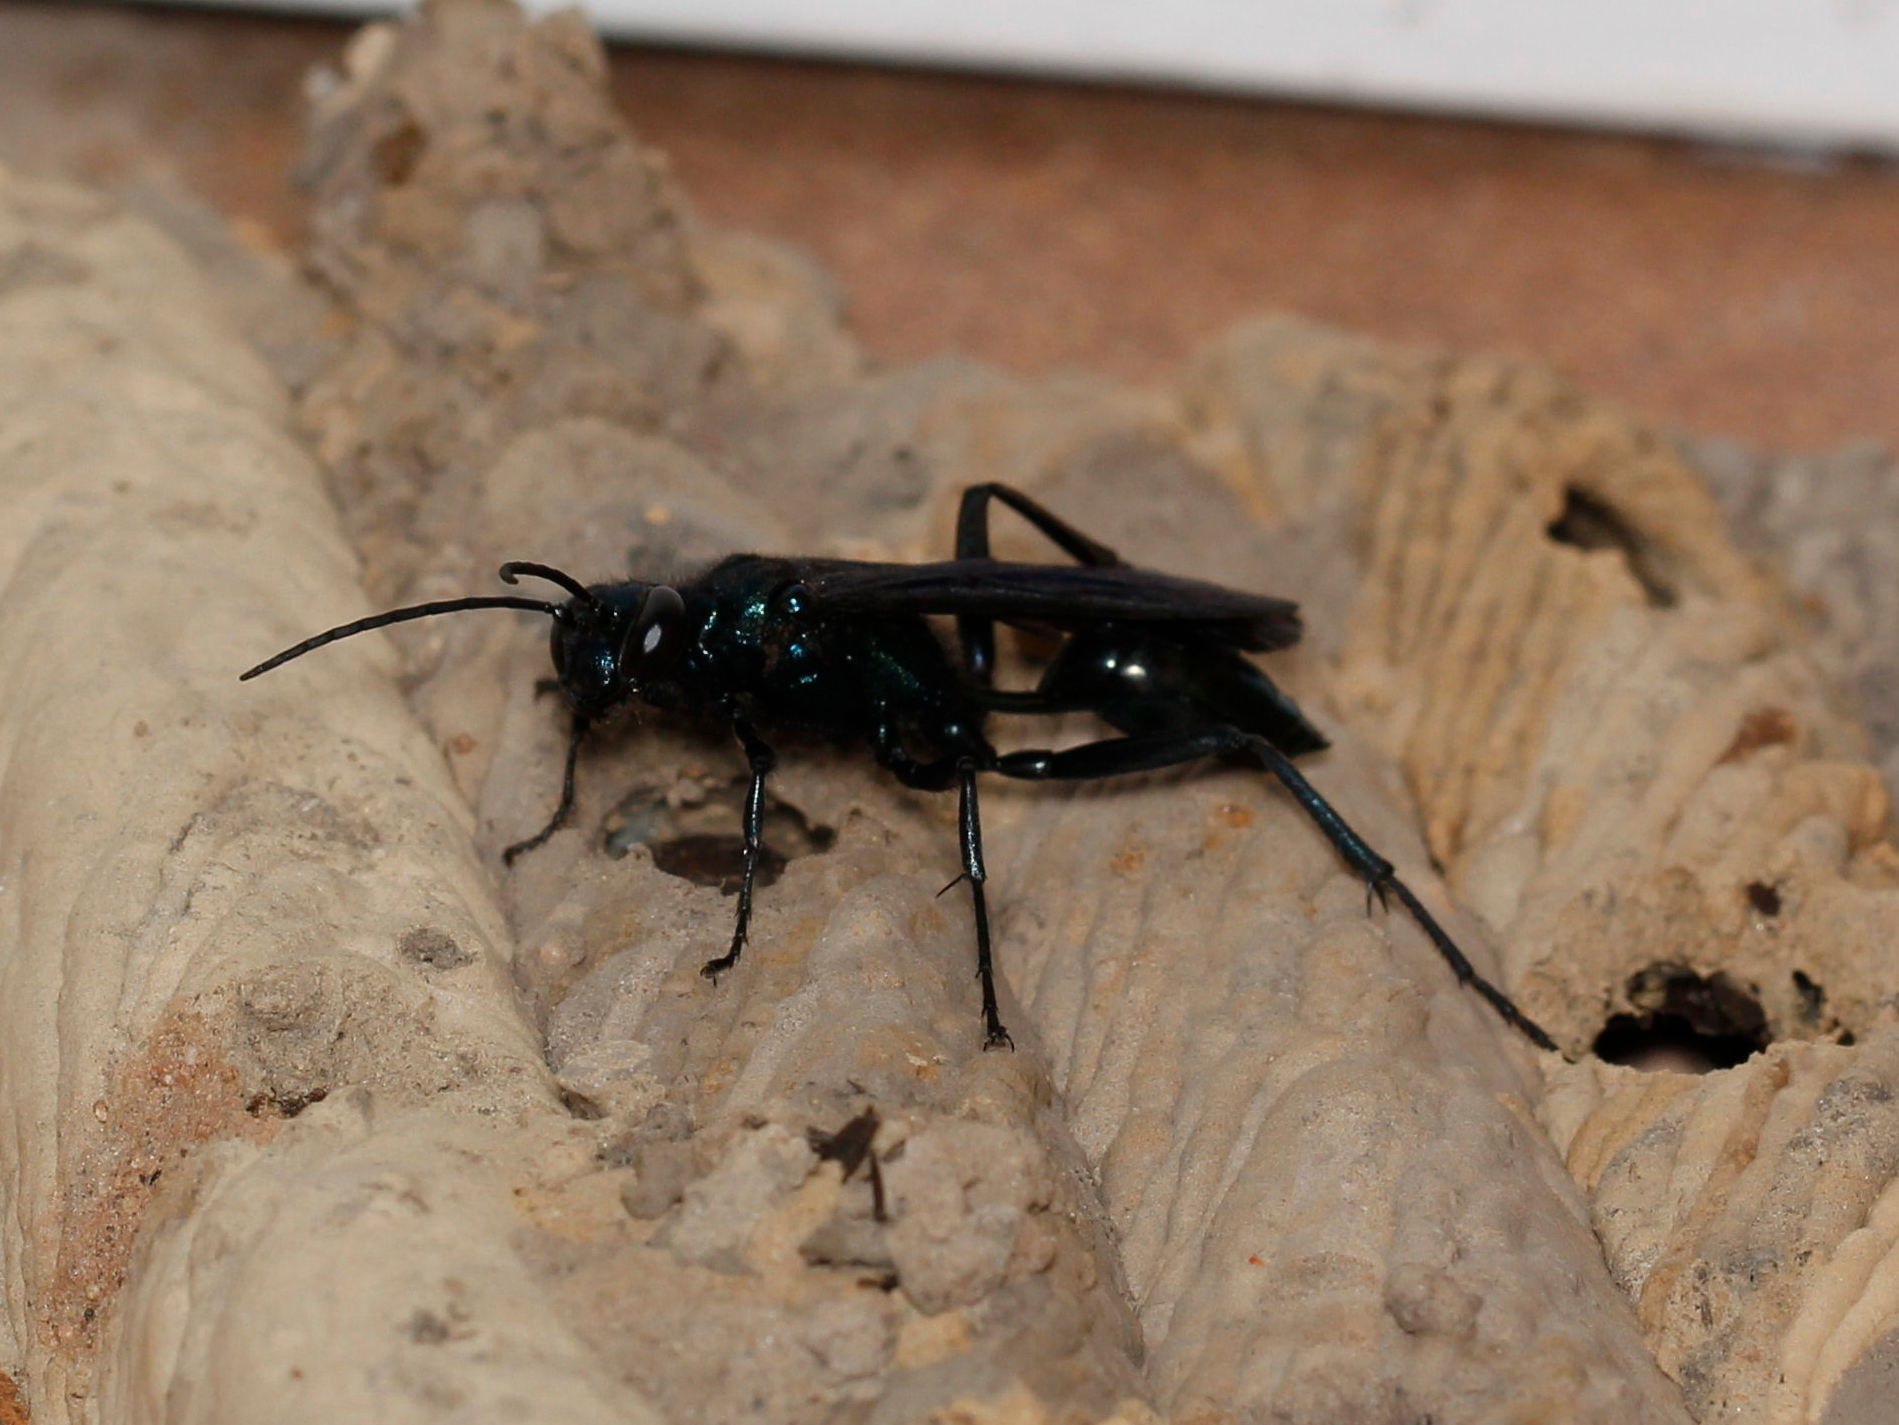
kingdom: Animalia
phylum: Arthropoda
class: Insecta
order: Hymenoptera
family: Sphecidae
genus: Chalybion
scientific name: Chalybion californicum
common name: Mud dauber
